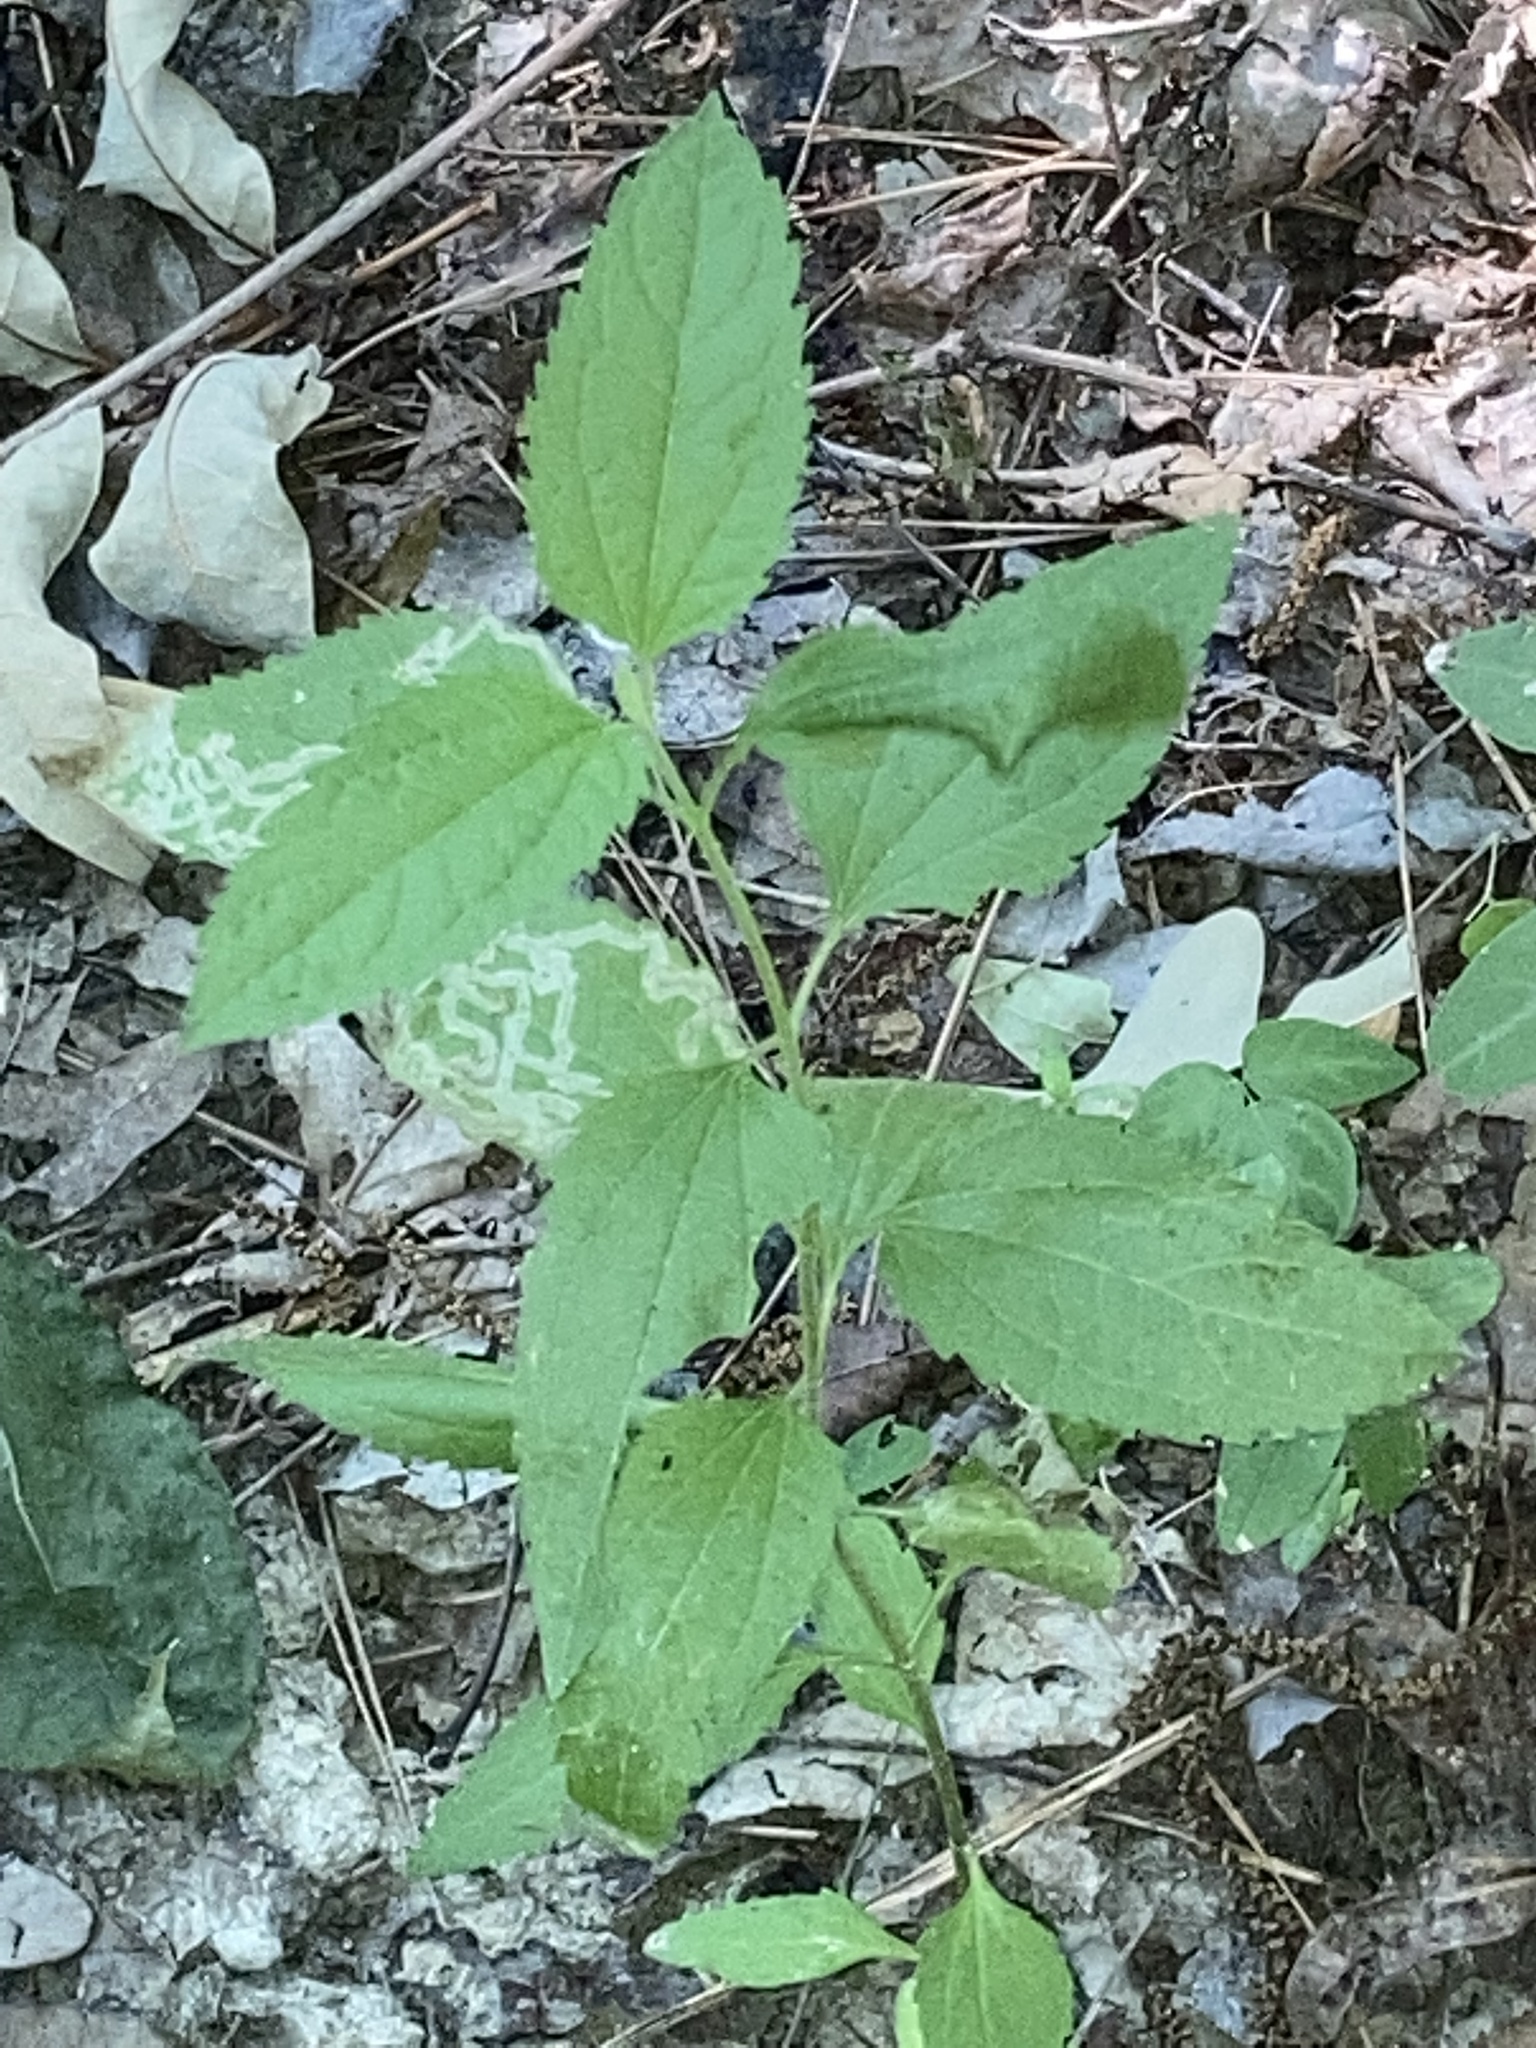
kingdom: Plantae
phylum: Tracheophyta
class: Magnoliopsida
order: Asterales
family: Asteraceae
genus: Eupatorium
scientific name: Eupatorium serotinum
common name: Late boneset
